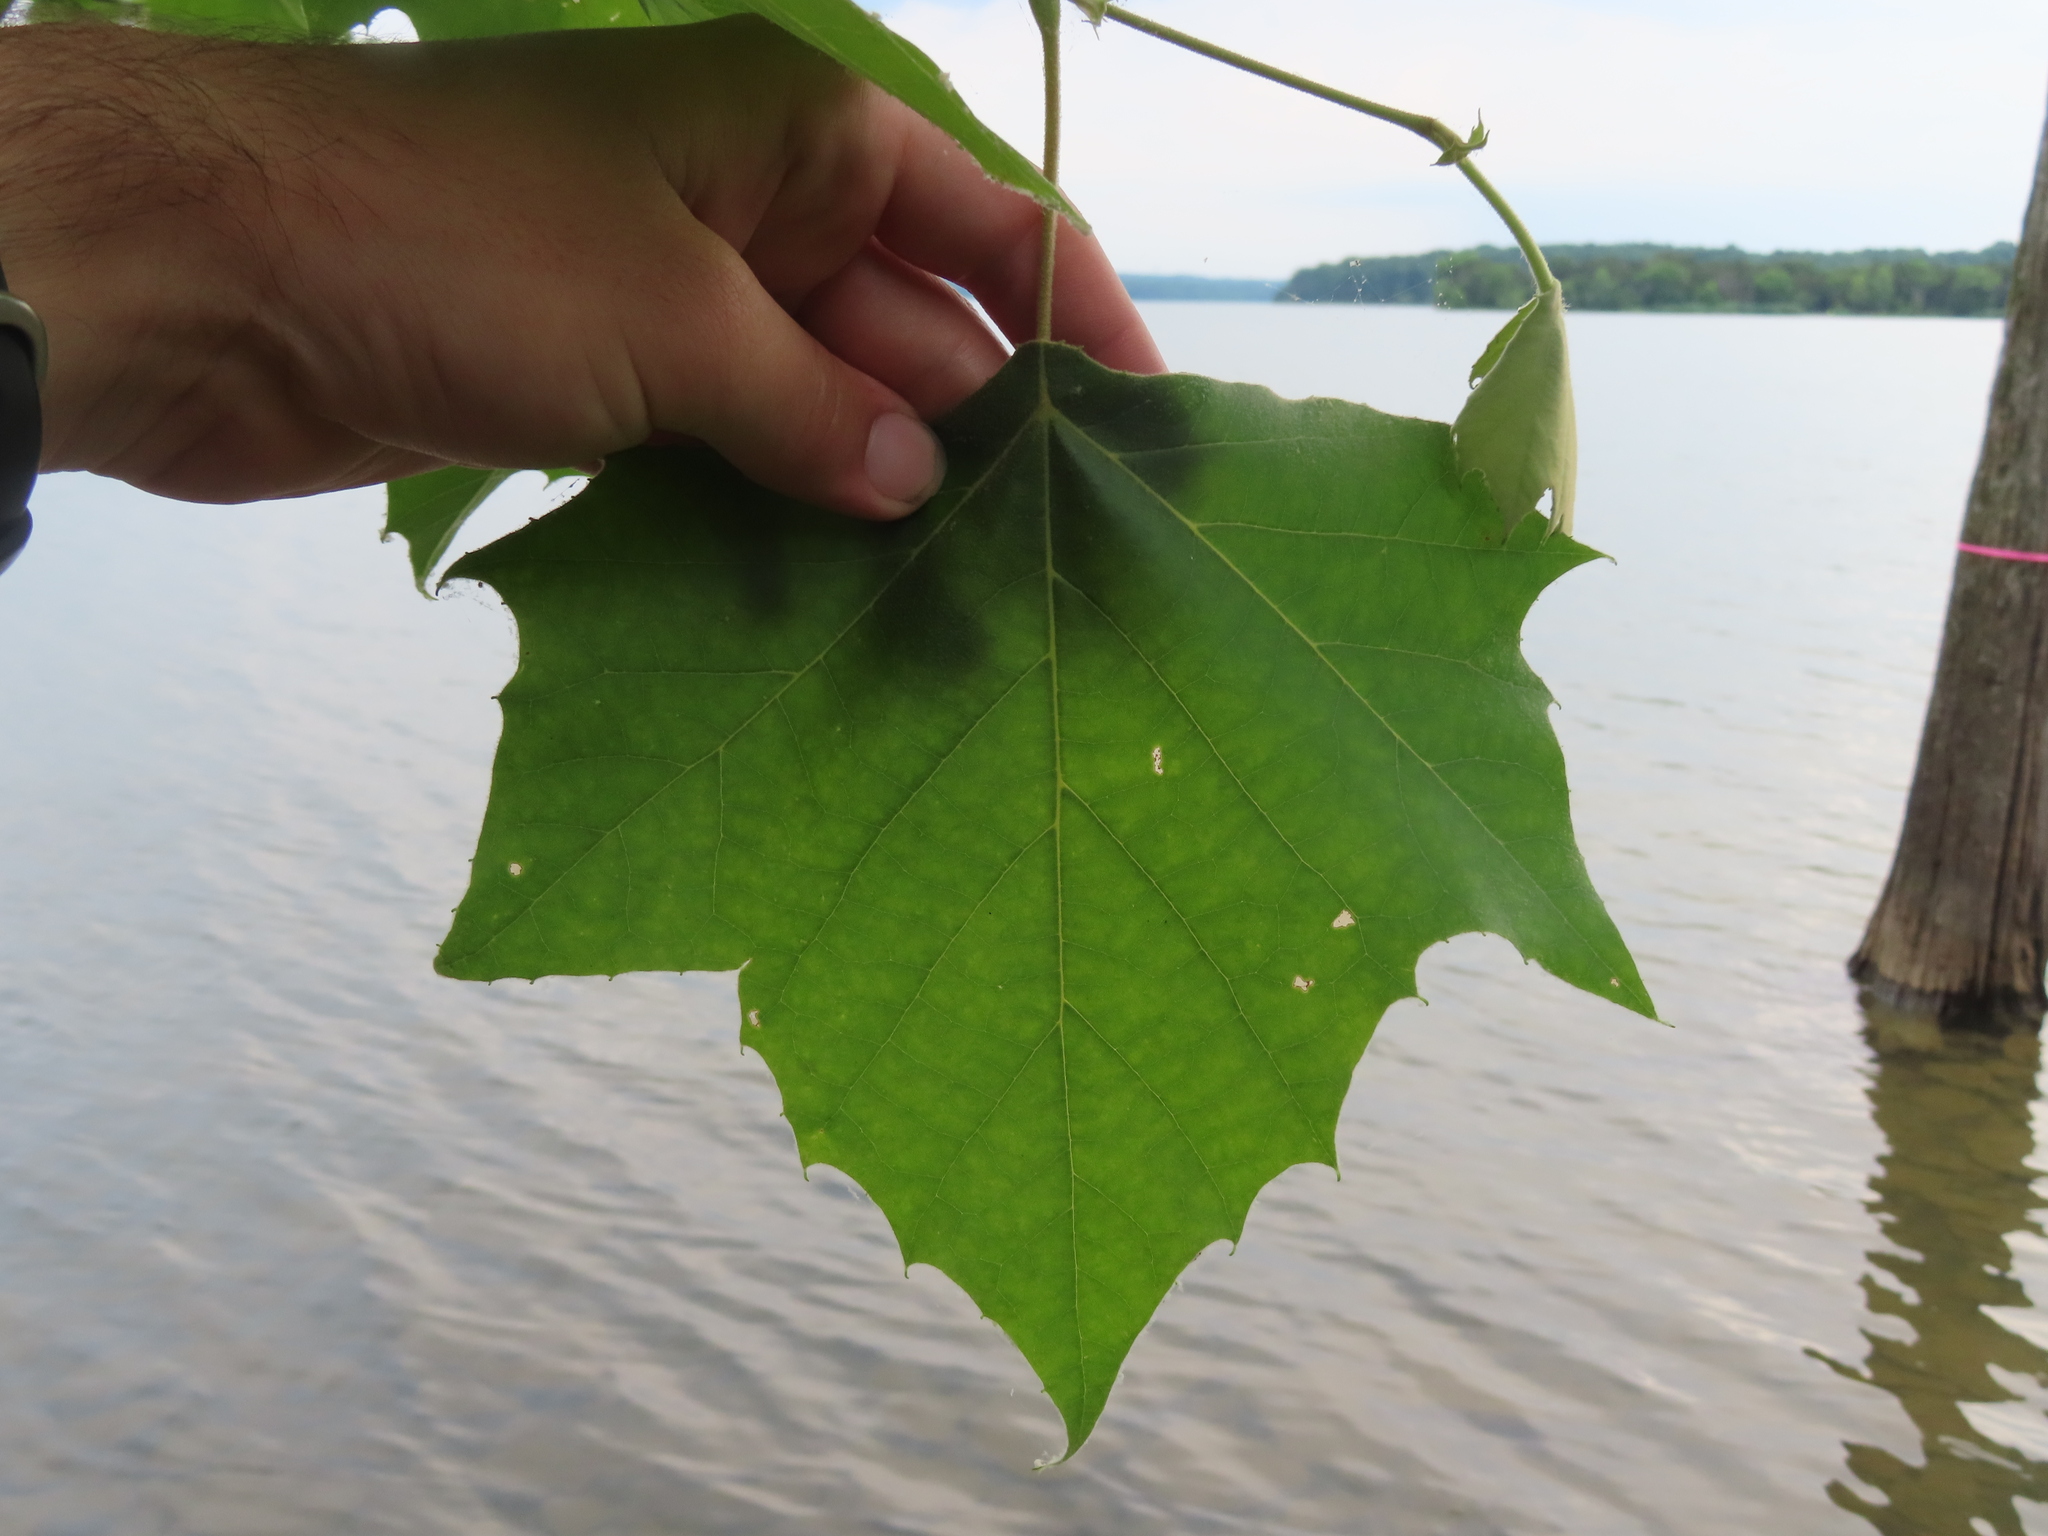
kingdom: Plantae
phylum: Tracheophyta
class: Magnoliopsida
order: Proteales
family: Platanaceae
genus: Platanus
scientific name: Platanus occidentalis
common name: American sycamore
